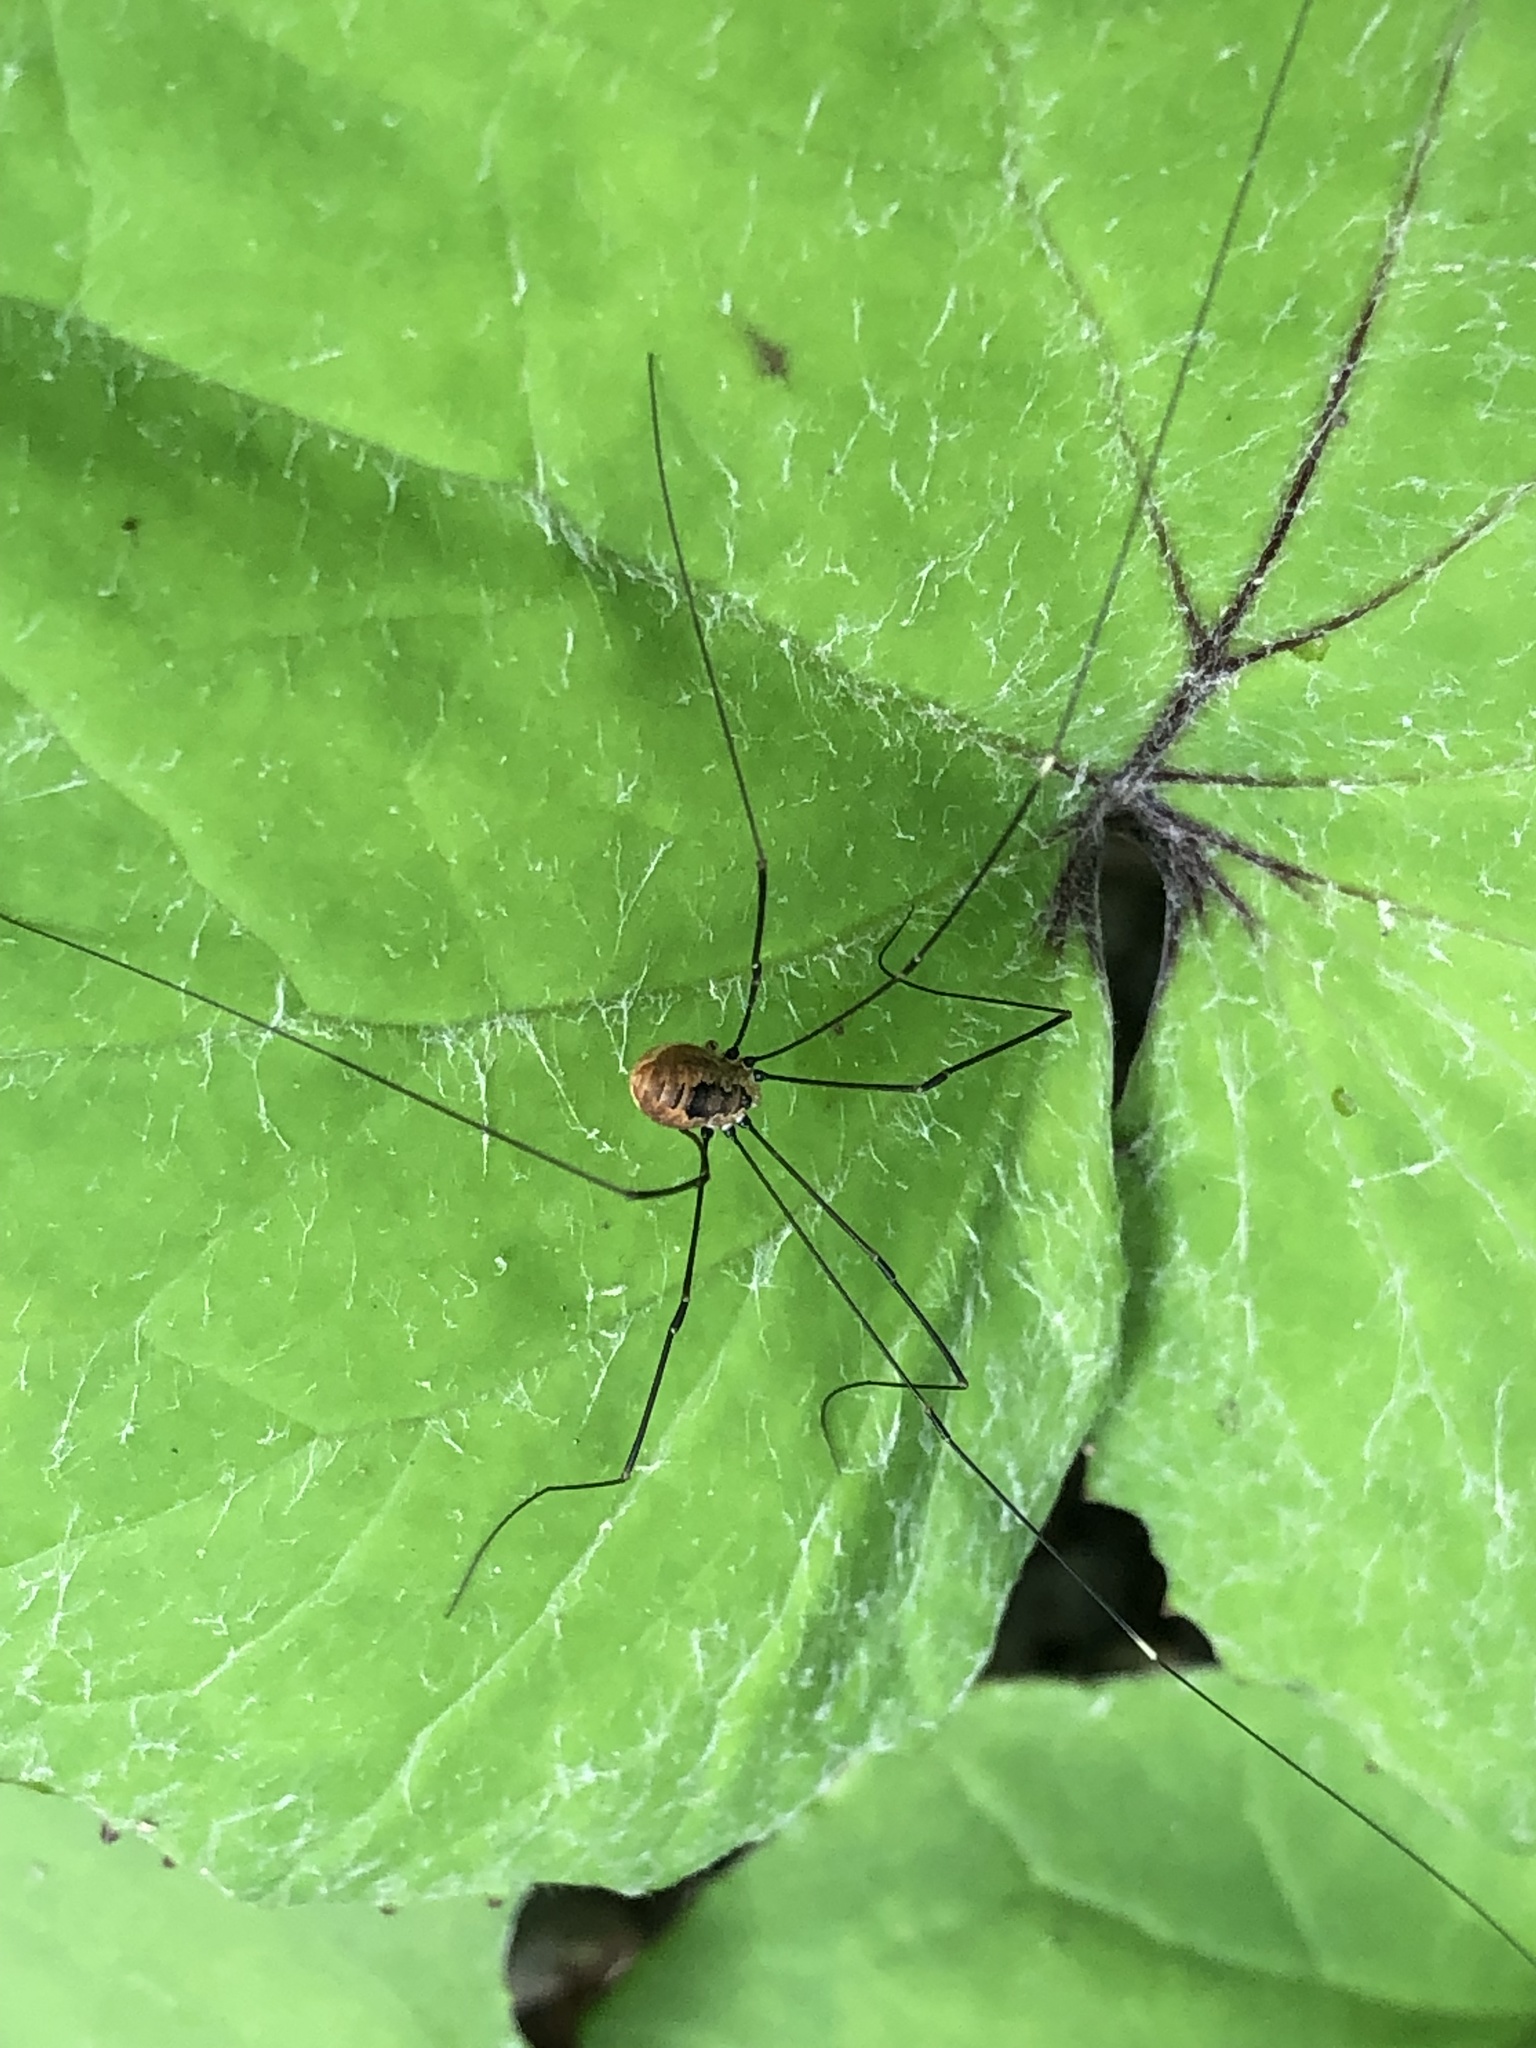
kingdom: Animalia
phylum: Arthropoda
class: Arachnida
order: Opiliones
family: Sclerosomatidae
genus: Leiobunum
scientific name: Leiobunum vittatum
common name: Eastern harvestman
